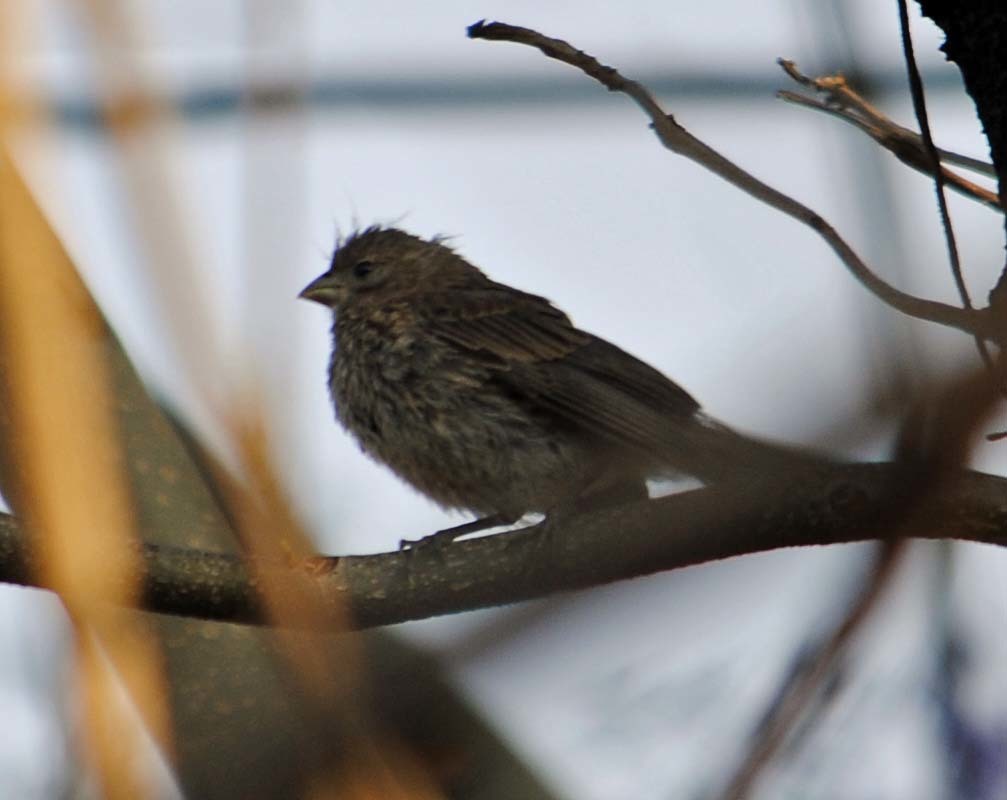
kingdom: Animalia
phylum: Chordata
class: Aves
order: Passeriformes
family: Fringillidae
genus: Haemorhous
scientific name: Haemorhous mexicanus
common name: House finch
